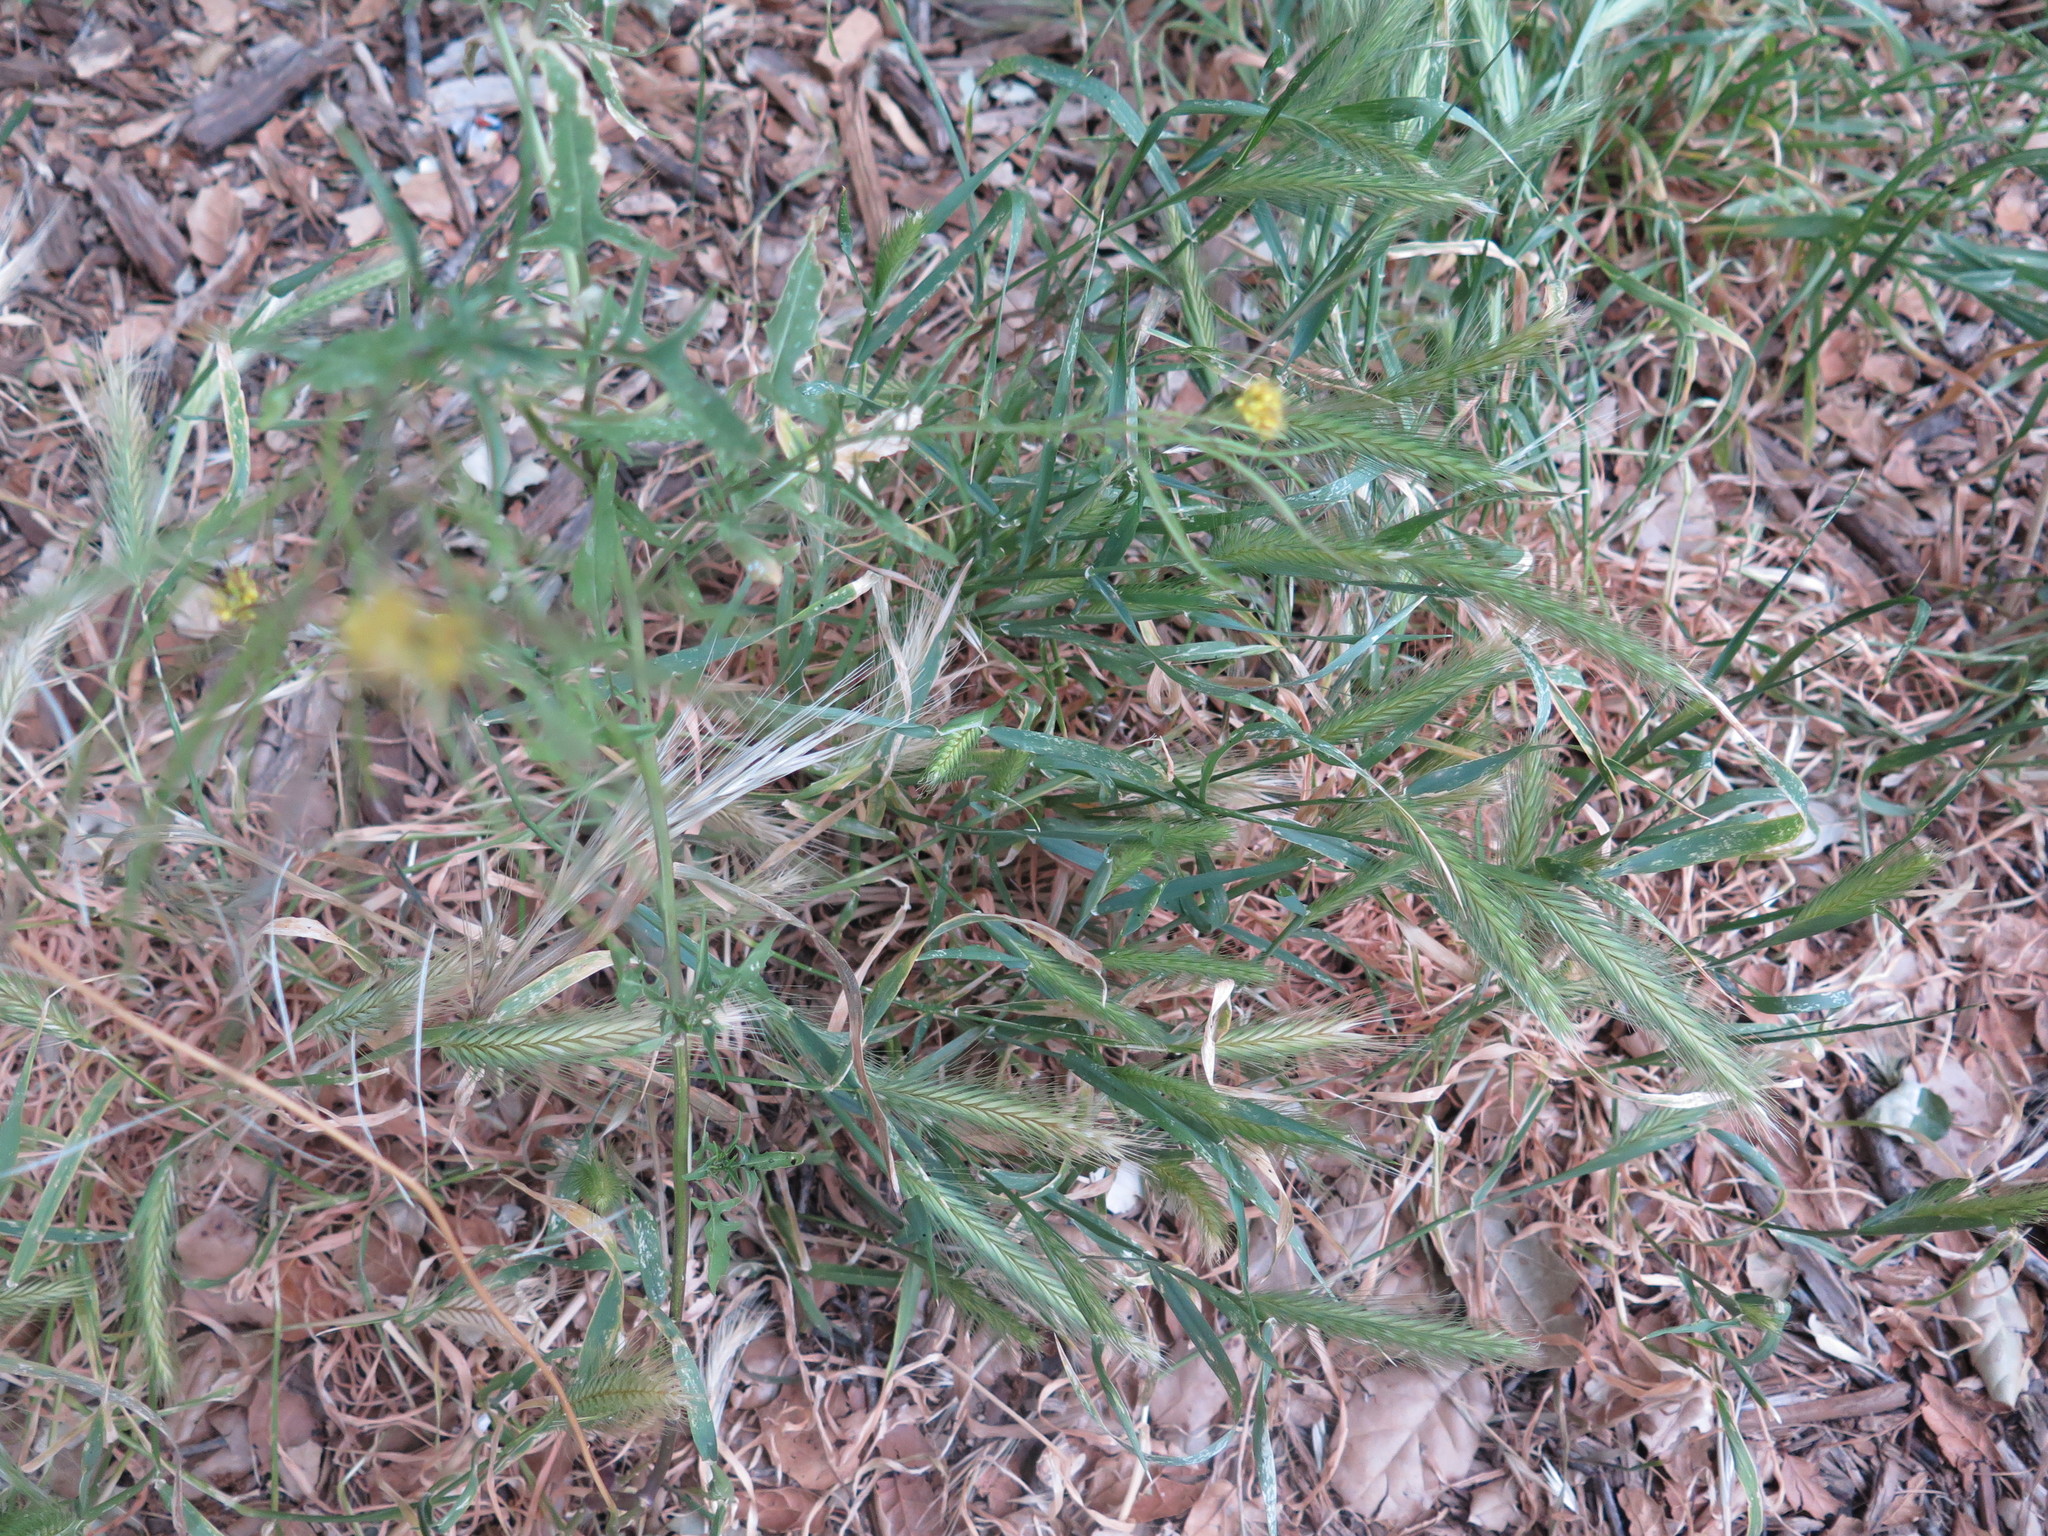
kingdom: Plantae
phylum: Tracheophyta
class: Liliopsida
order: Poales
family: Poaceae
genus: Hordeum
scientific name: Hordeum murinum
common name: Wall barley
